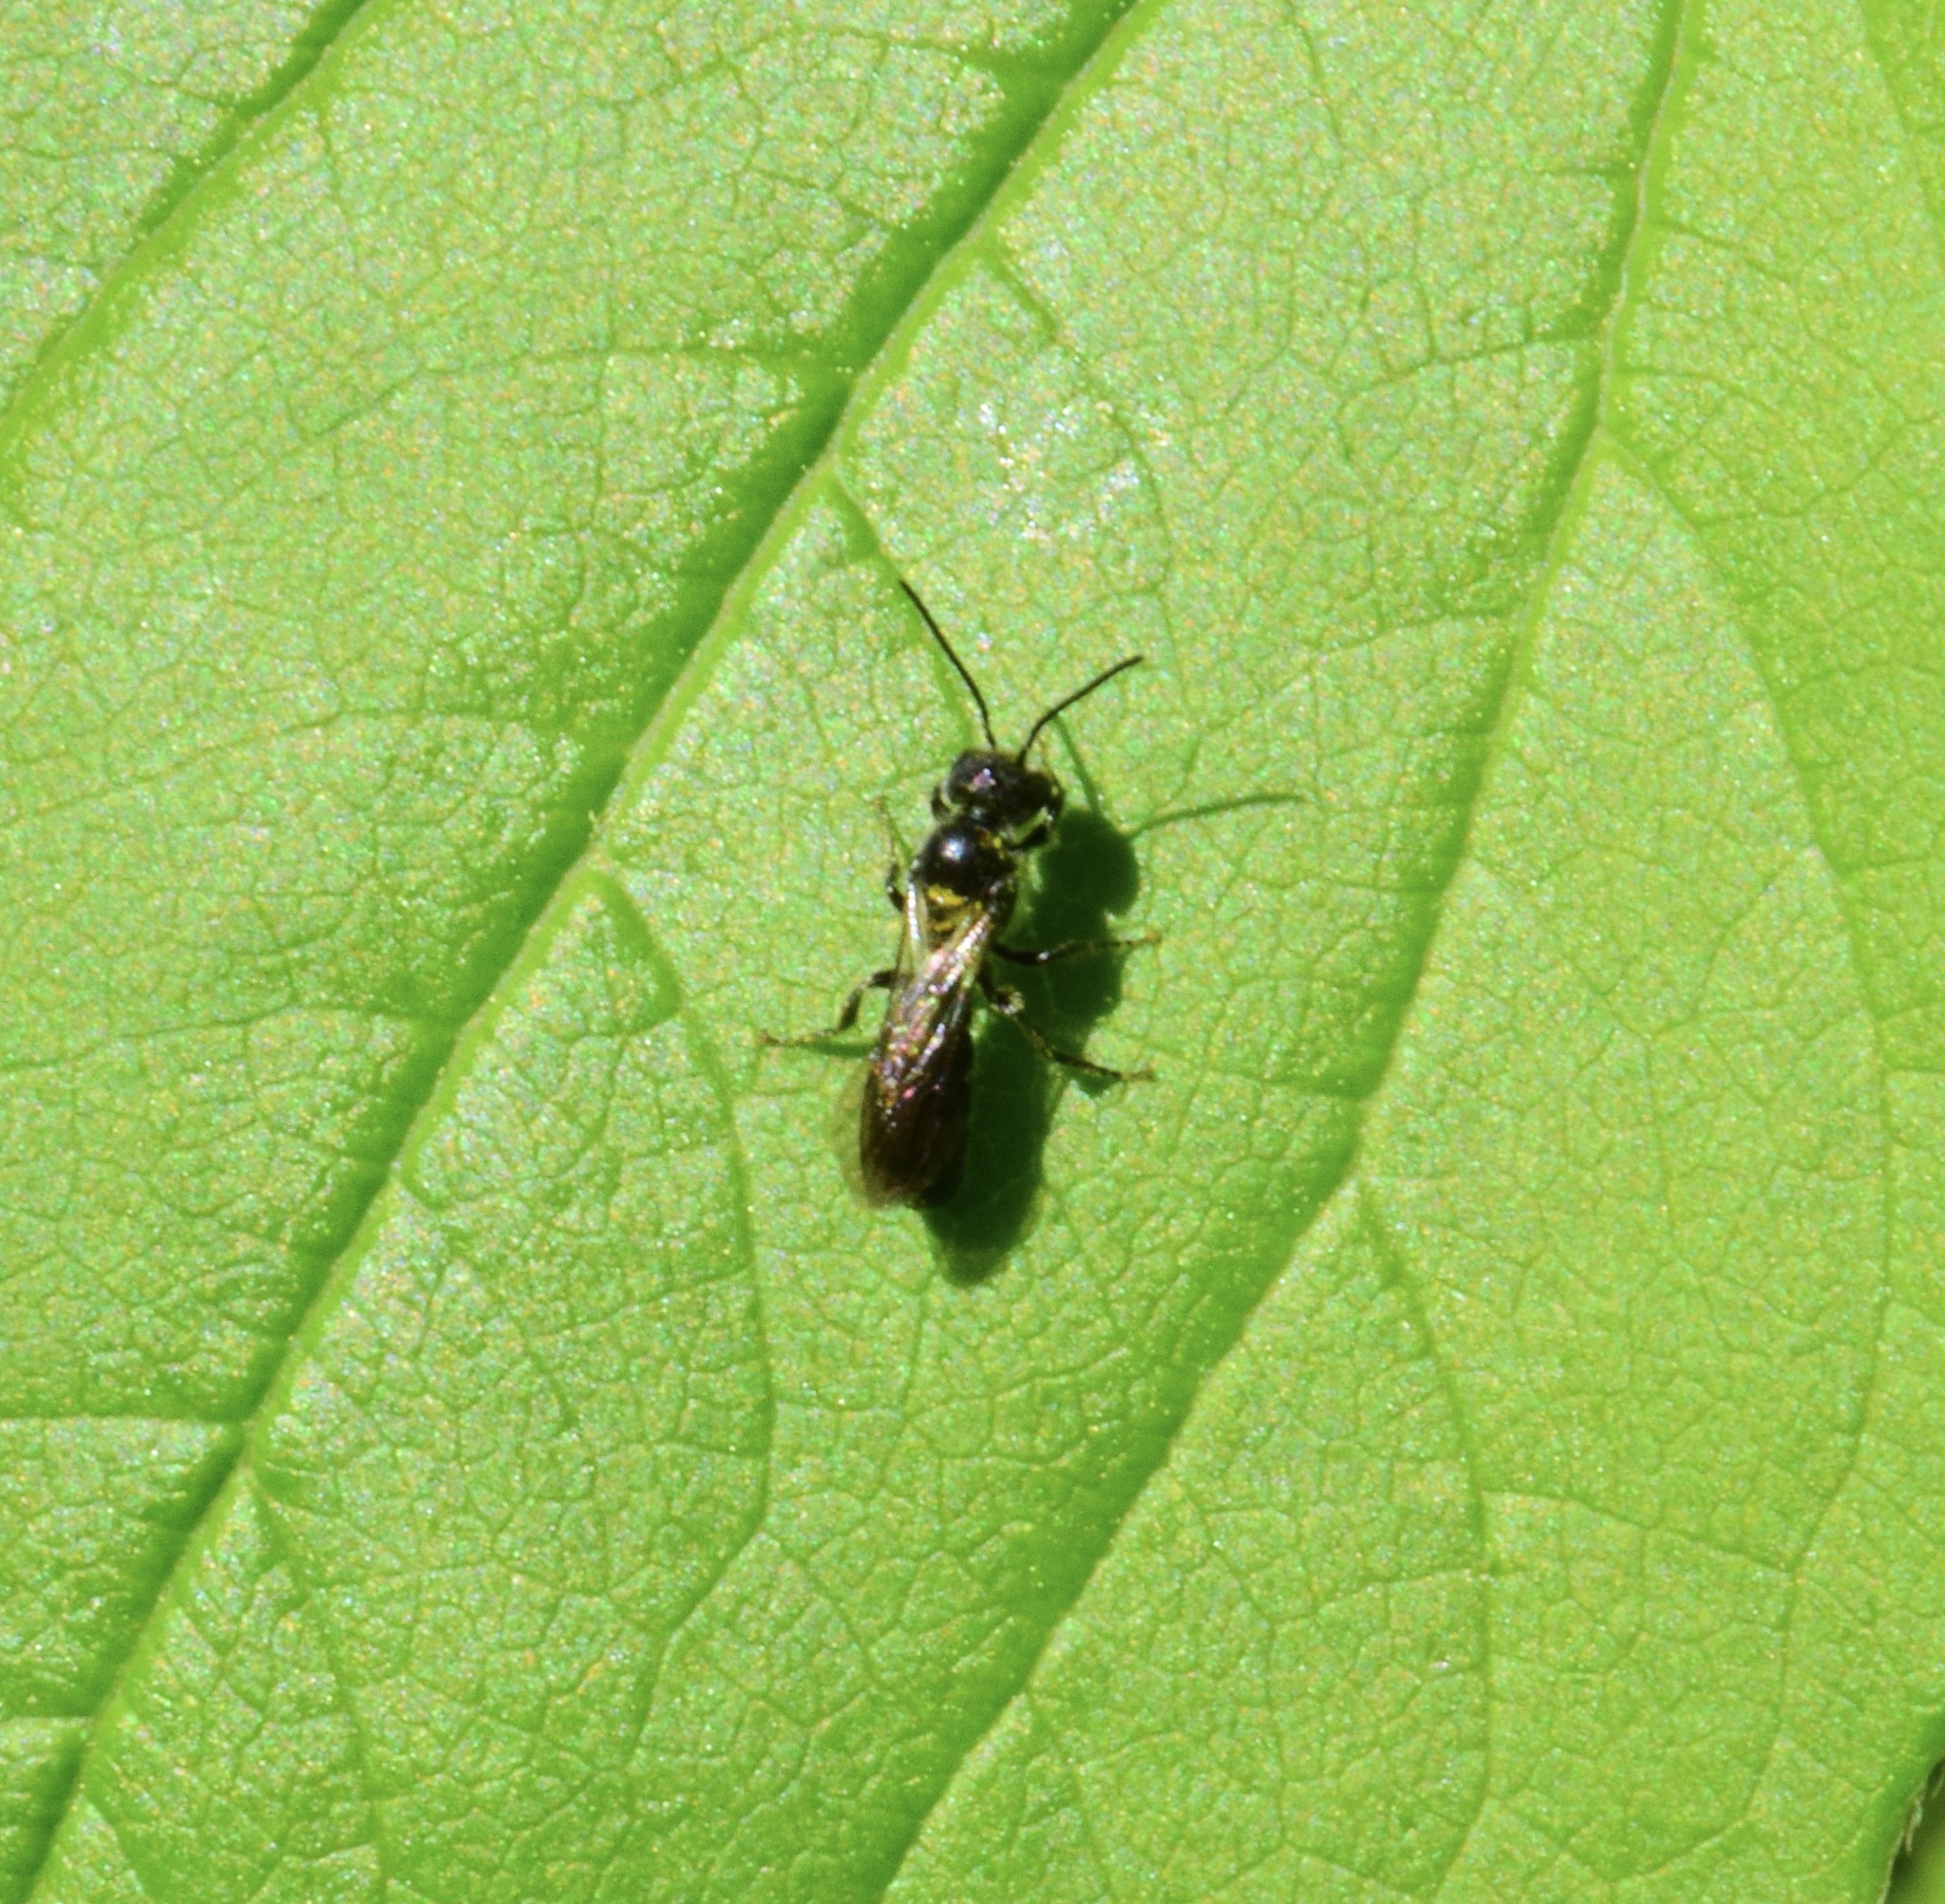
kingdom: Animalia
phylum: Arthropoda
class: Insecta
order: Hymenoptera
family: Megachilidae
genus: Chelostoma
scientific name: Chelostoma philadelphi
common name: Mock-orange scissor bee
